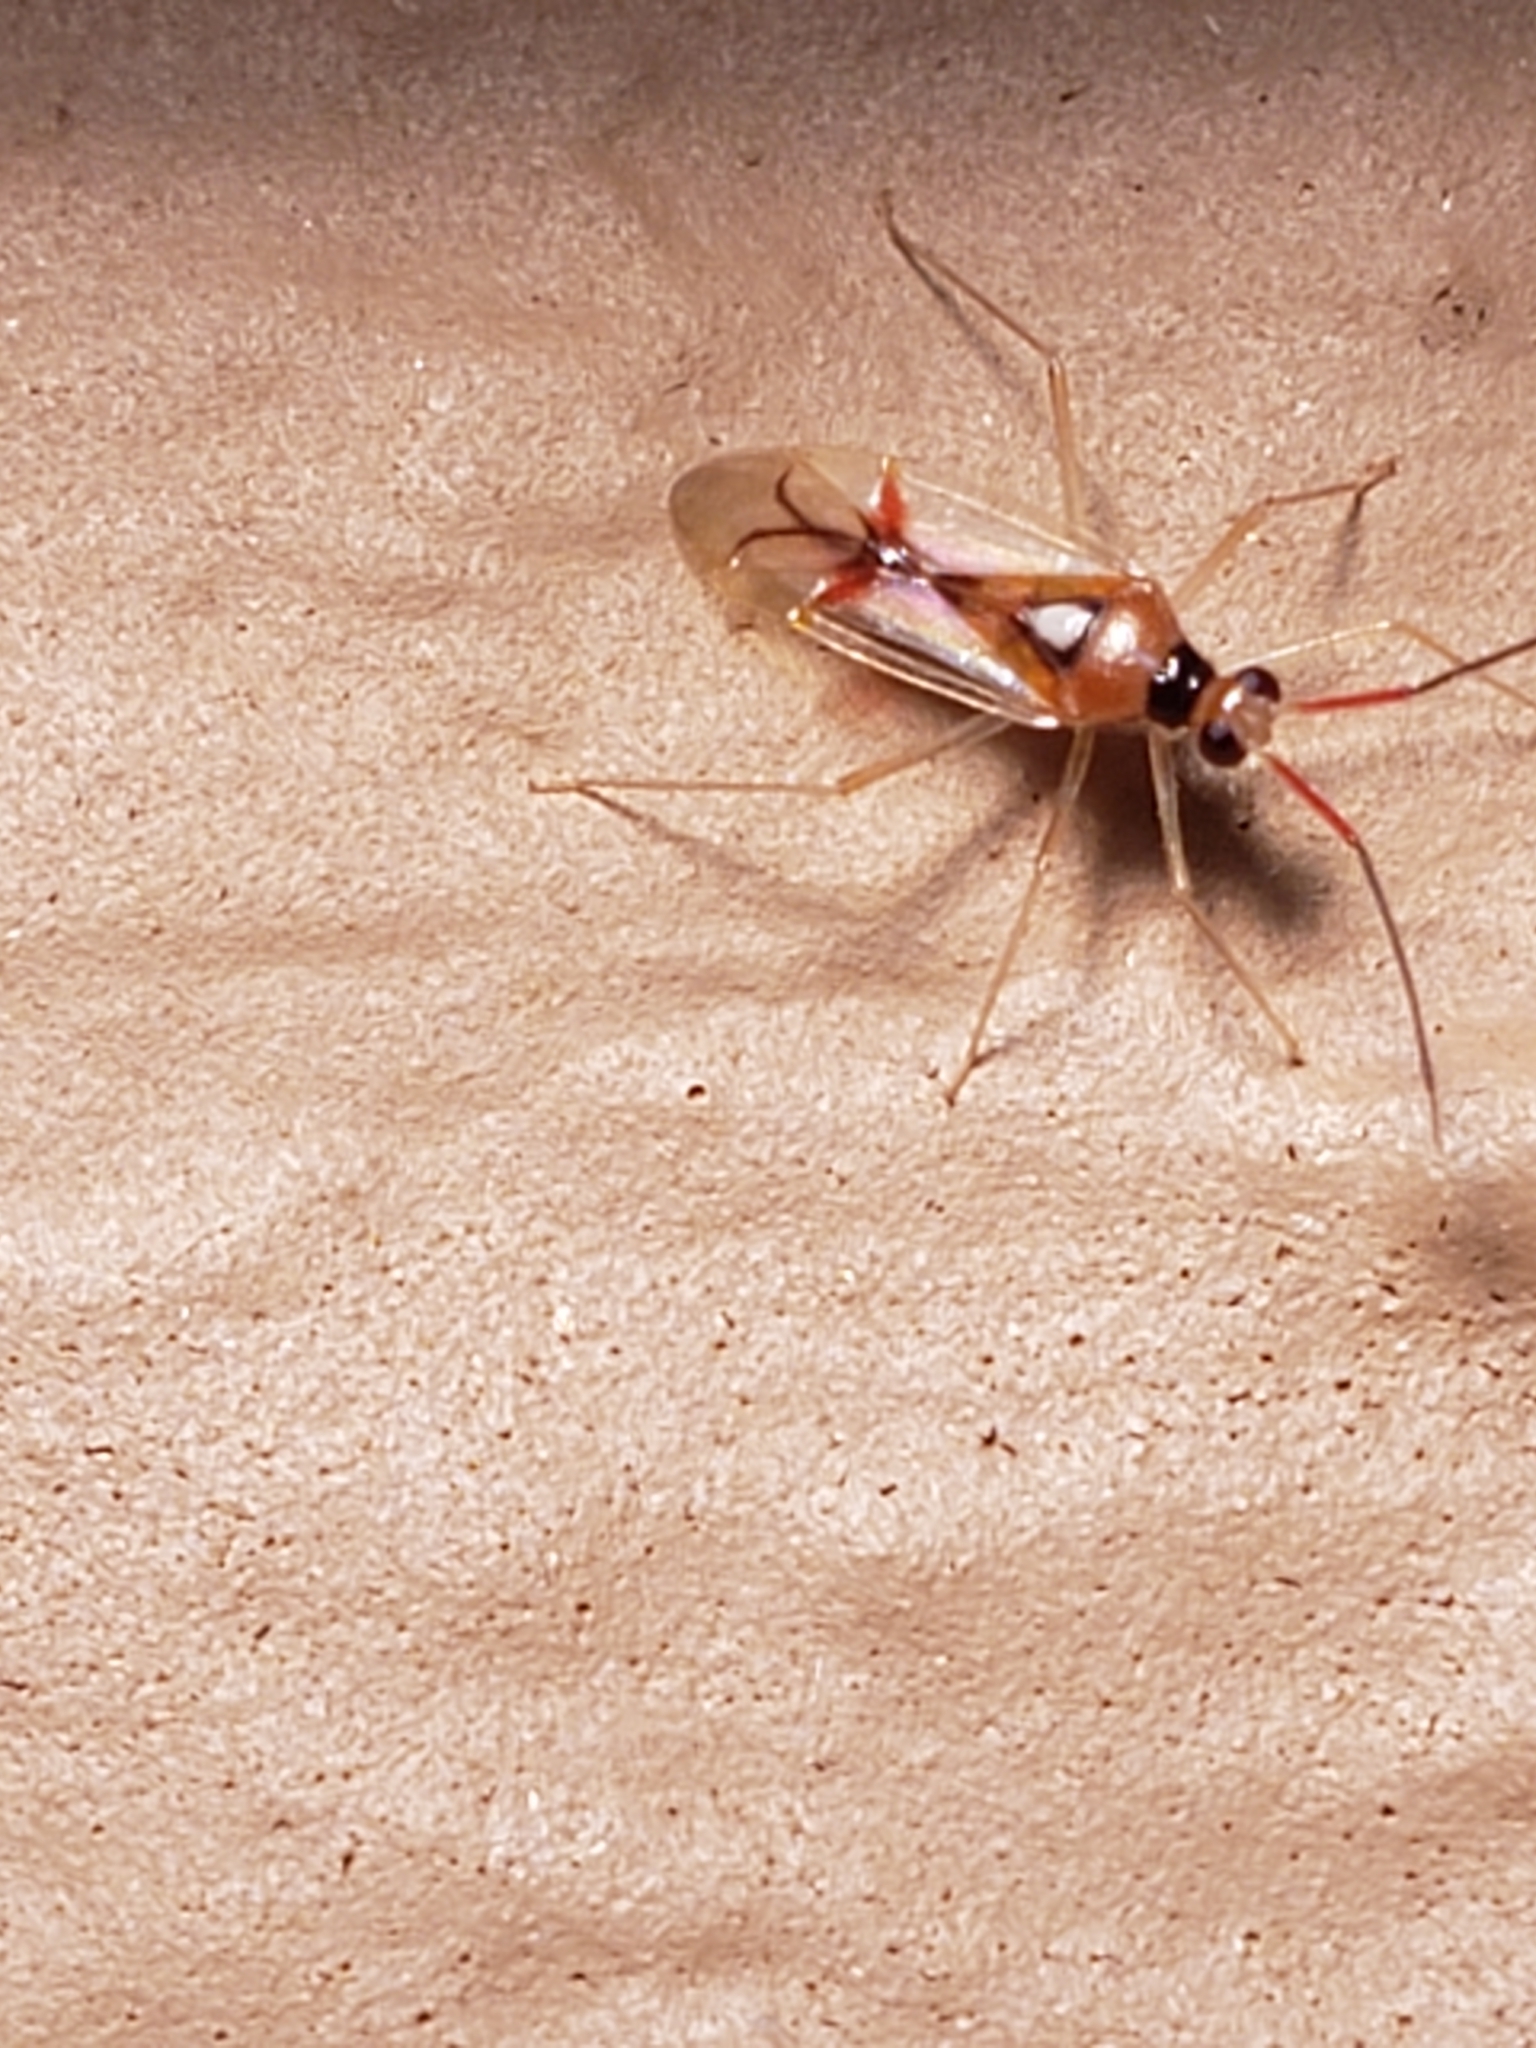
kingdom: Animalia
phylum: Arthropoda
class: Insecta
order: Hemiptera
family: Miridae
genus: Hyaliodes
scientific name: Hyaliodes harti
